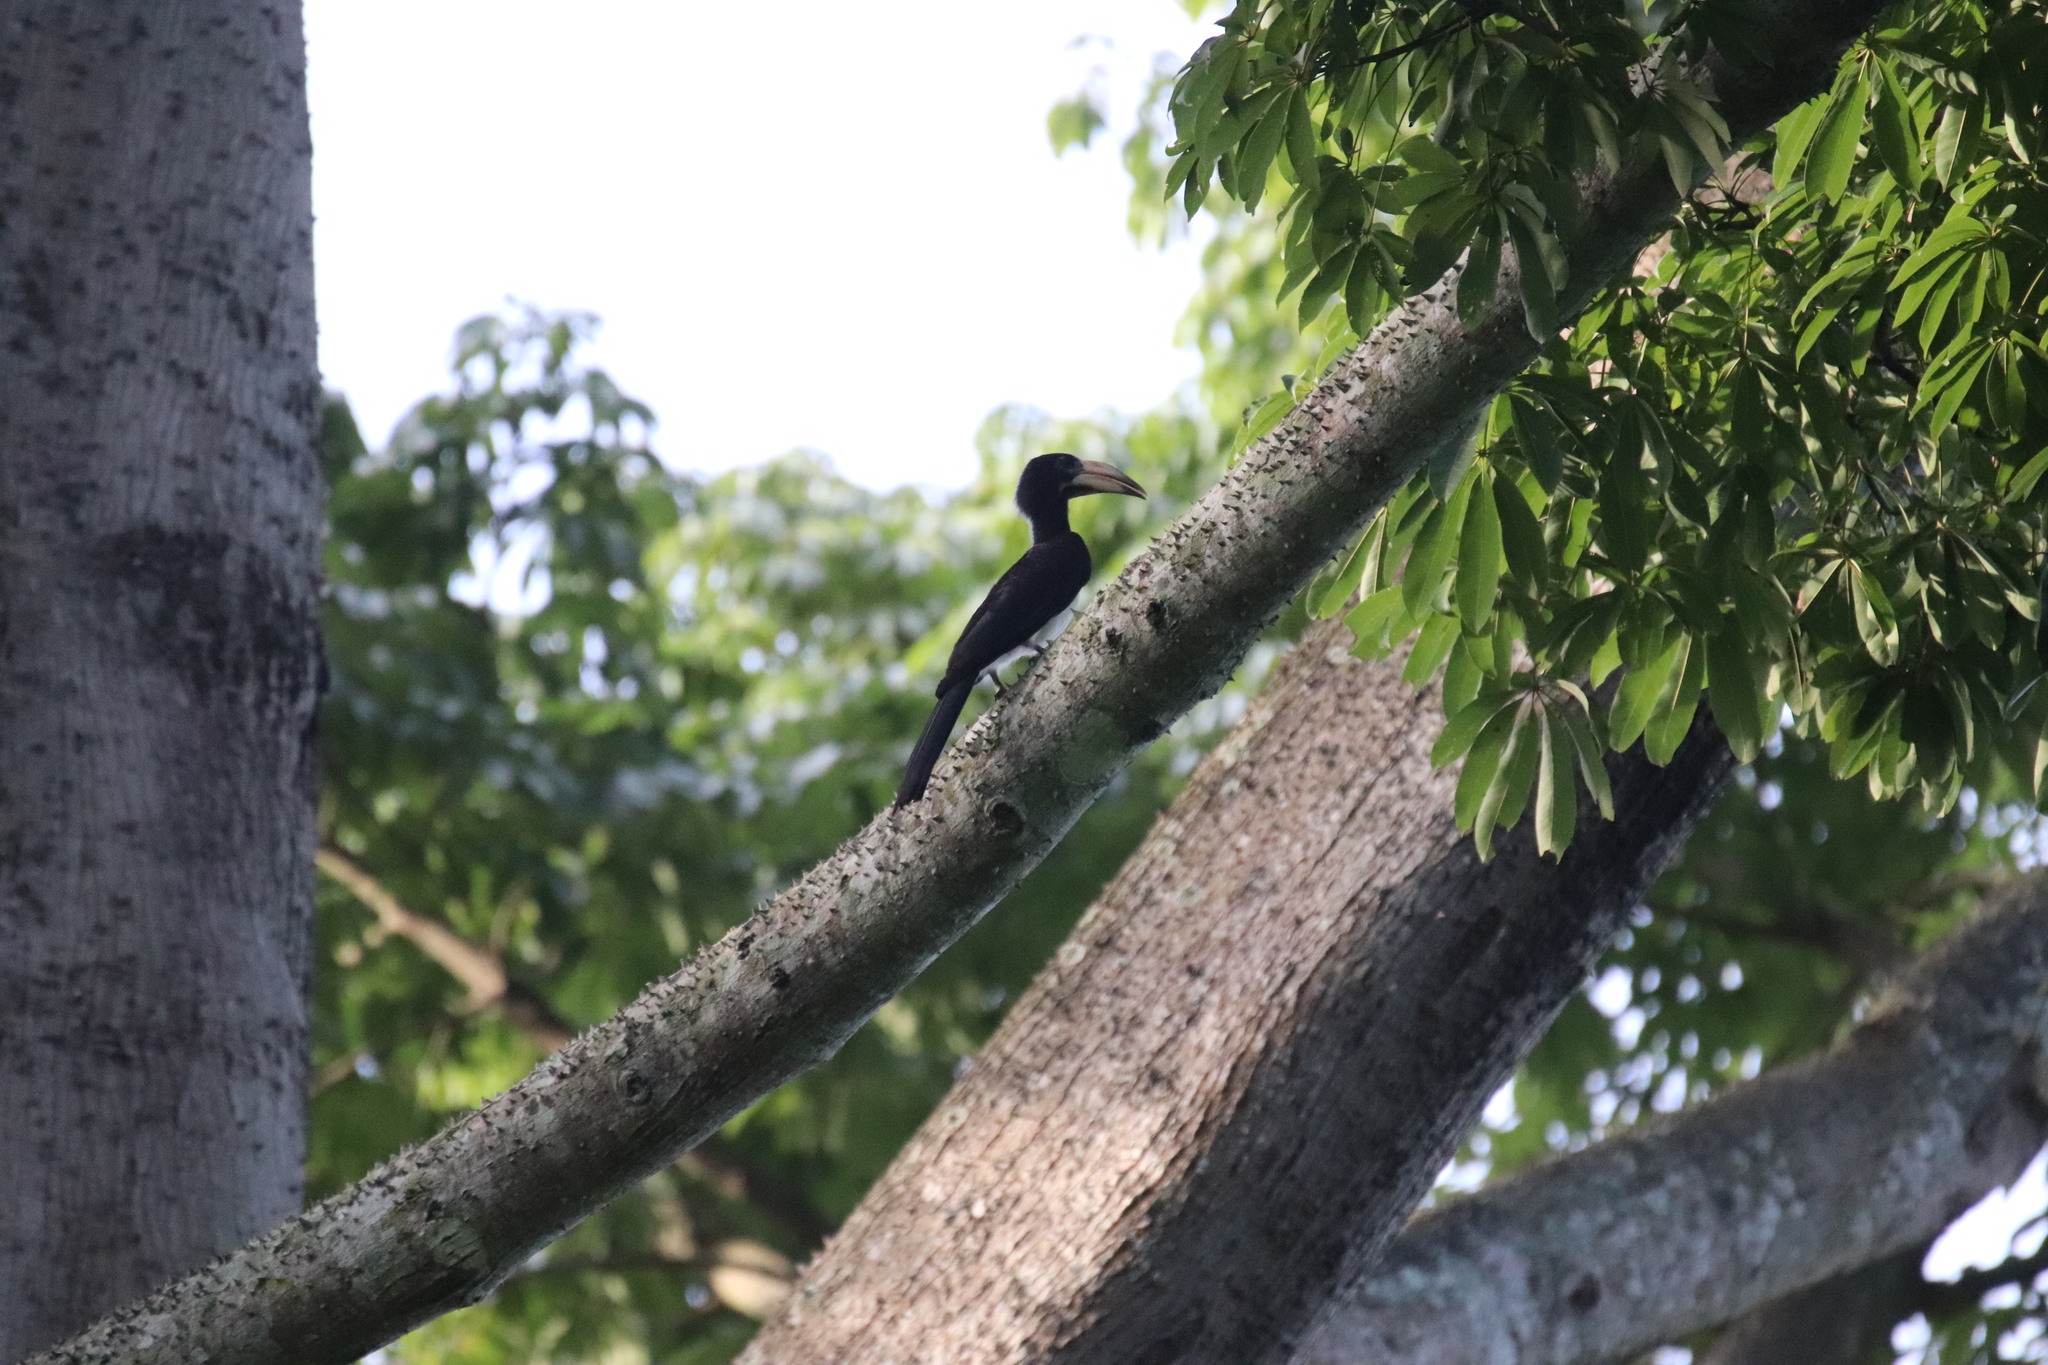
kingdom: Animalia
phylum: Chordata
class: Aves
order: Bucerotiformes
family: Bucerotidae
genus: Lophoceros
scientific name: Lophoceros fasciatus
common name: African pied hornbill
